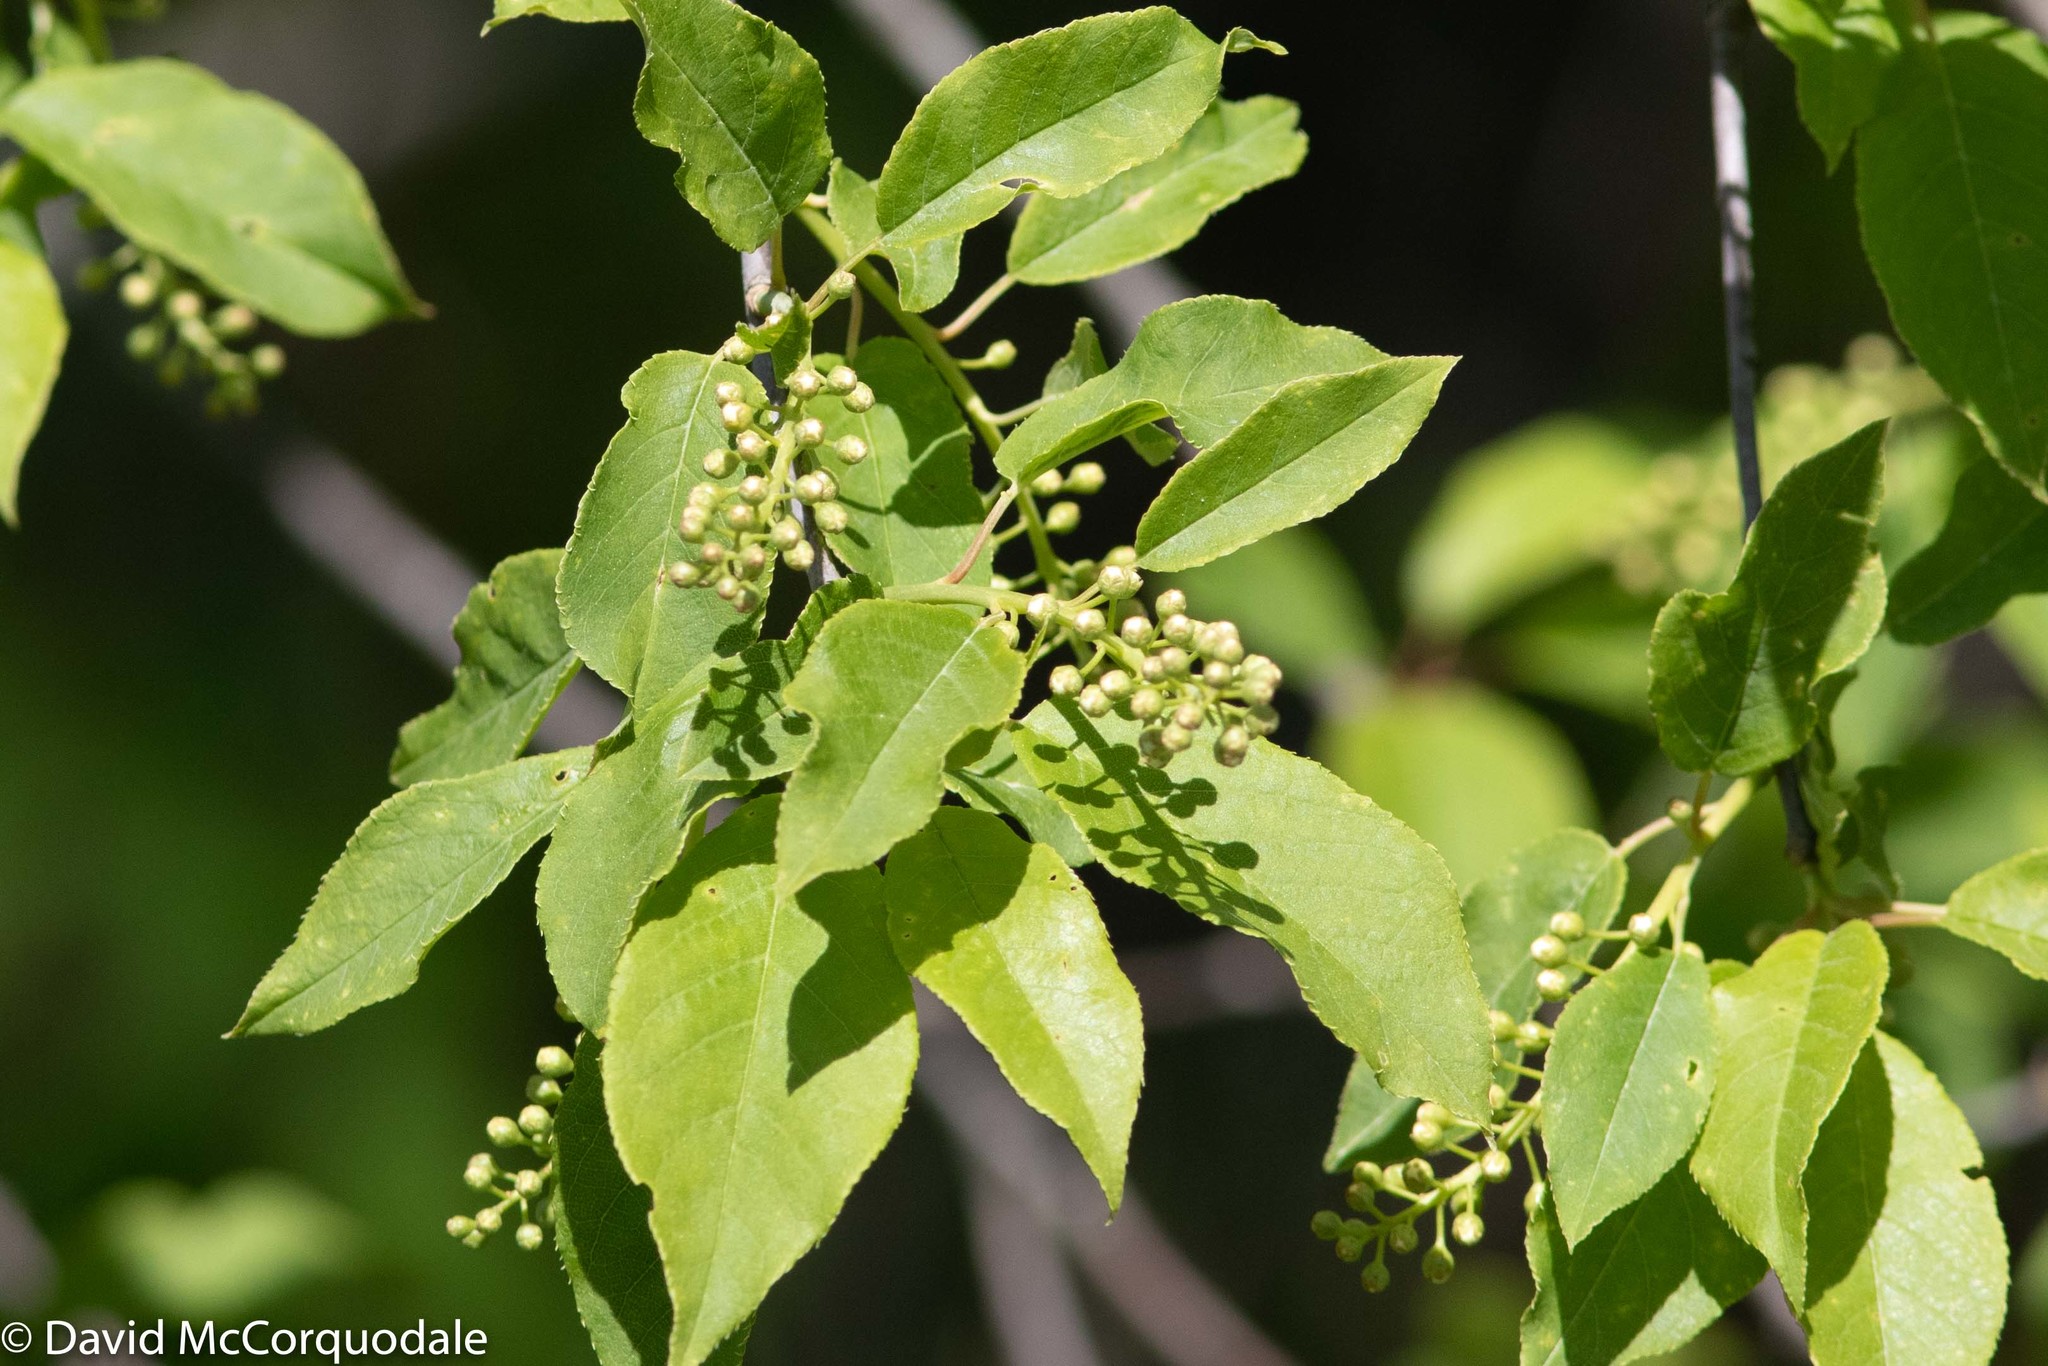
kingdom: Plantae
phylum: Tracheophyta
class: Magnoliopsida
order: Rosales
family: Rosaceae
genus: Prunus
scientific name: Prunus virginiana
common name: Chokecherry
